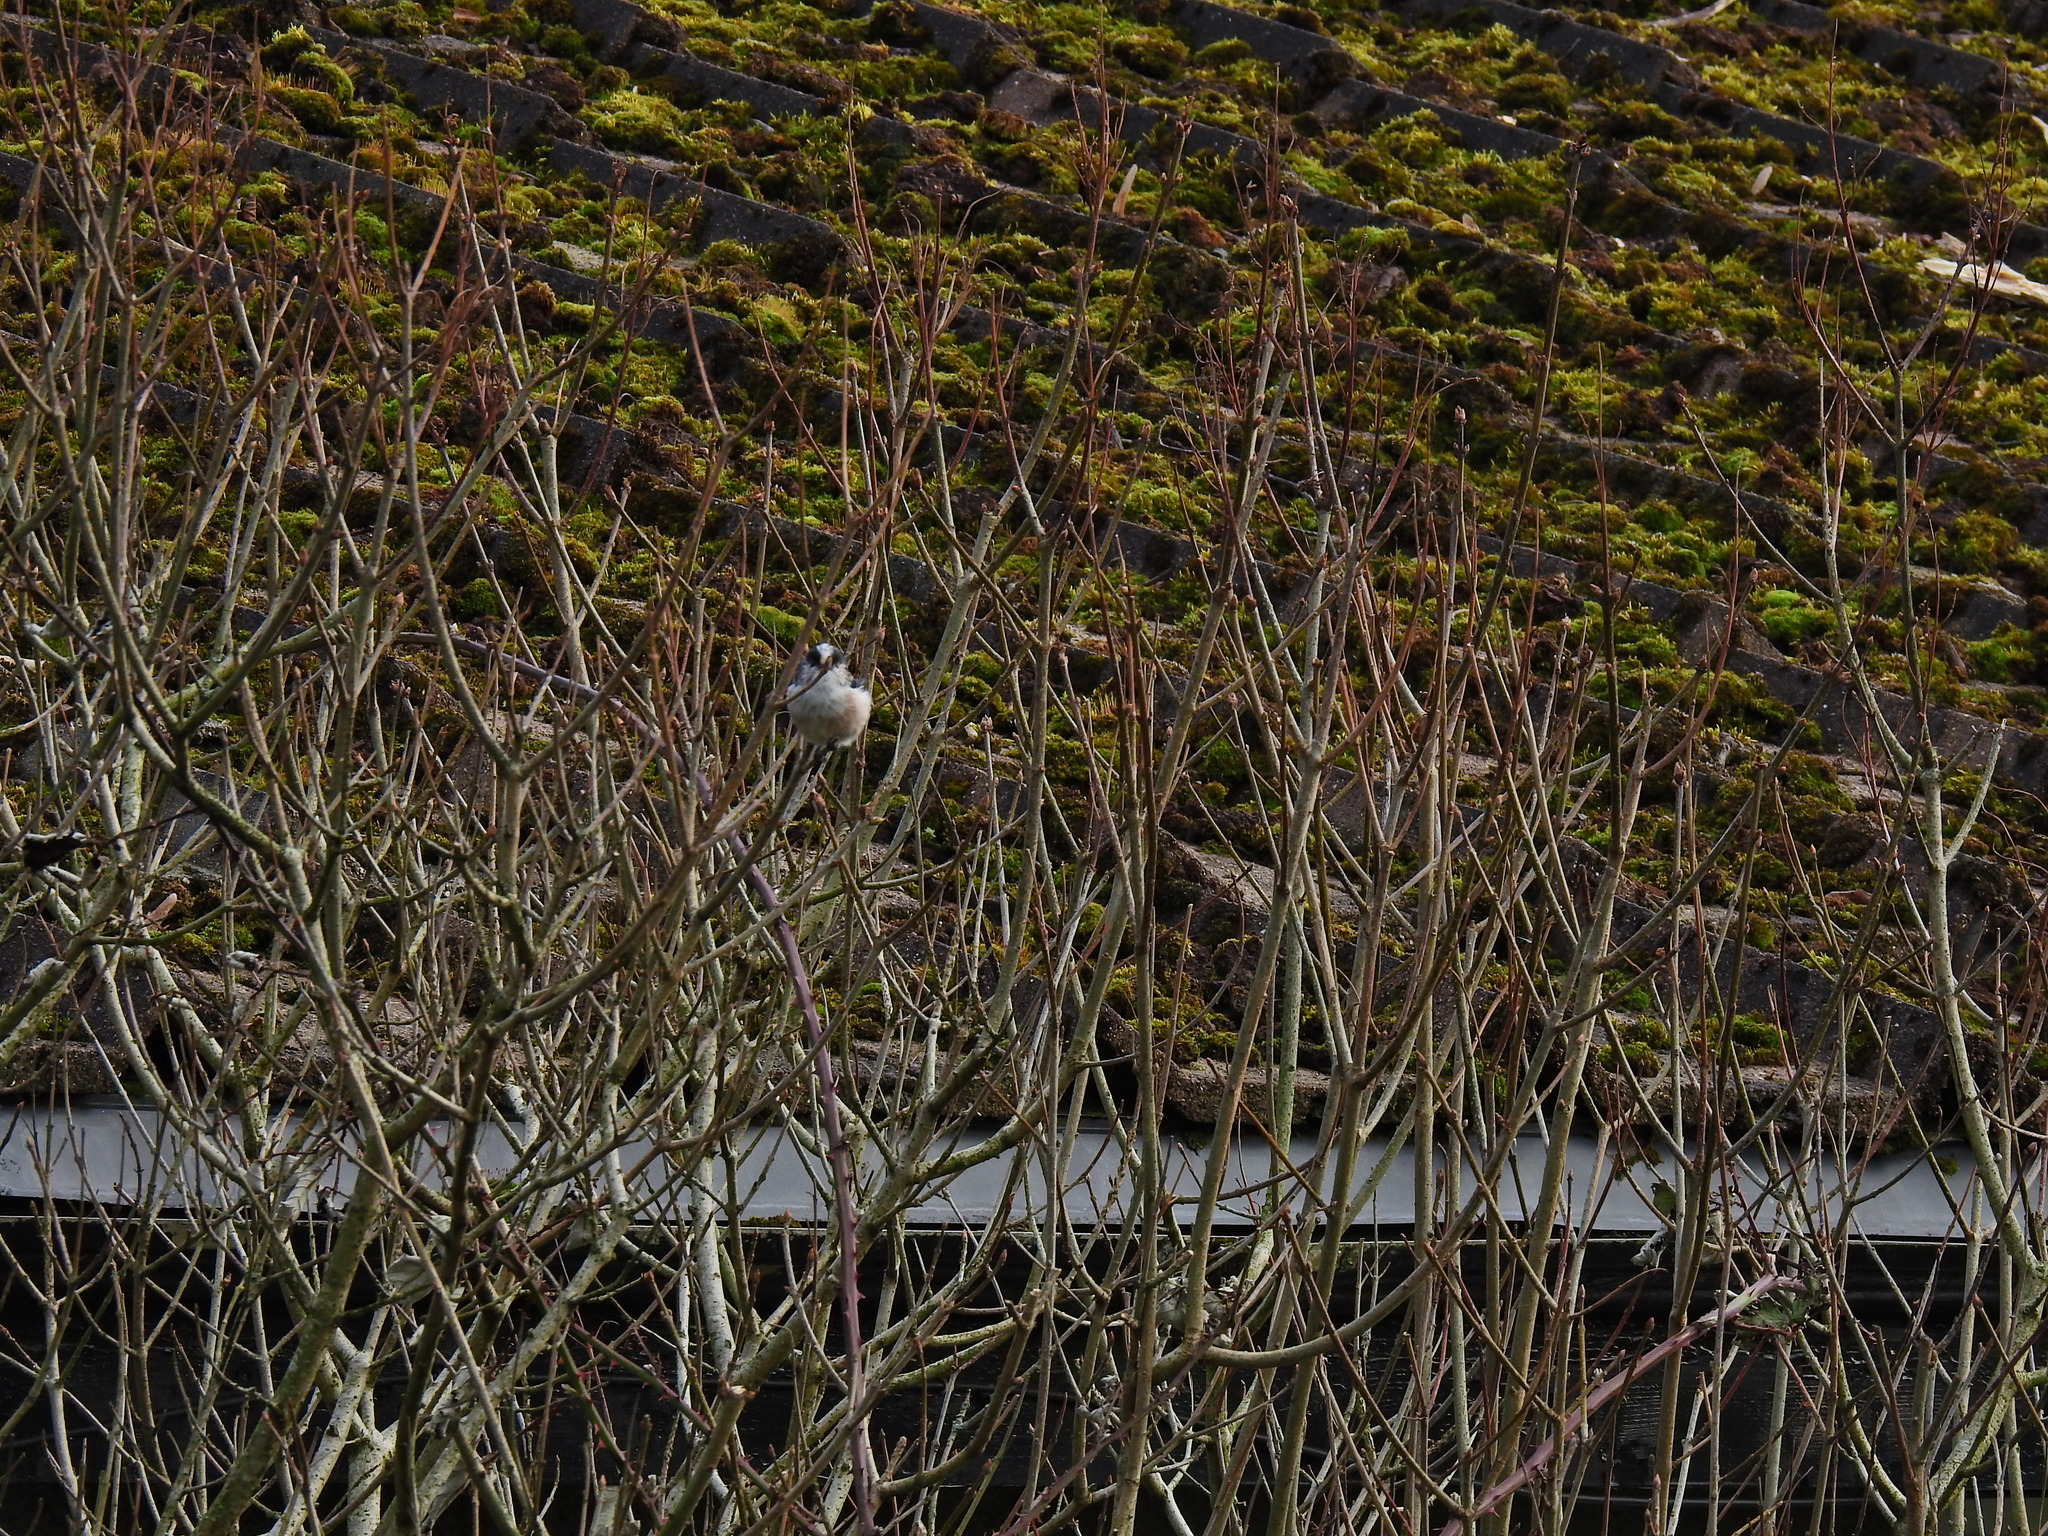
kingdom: Animalia
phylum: Chordata
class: Aves
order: Passeriformes
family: Aegithalidae
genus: Aegithalos
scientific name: Aegithalos caudatus
